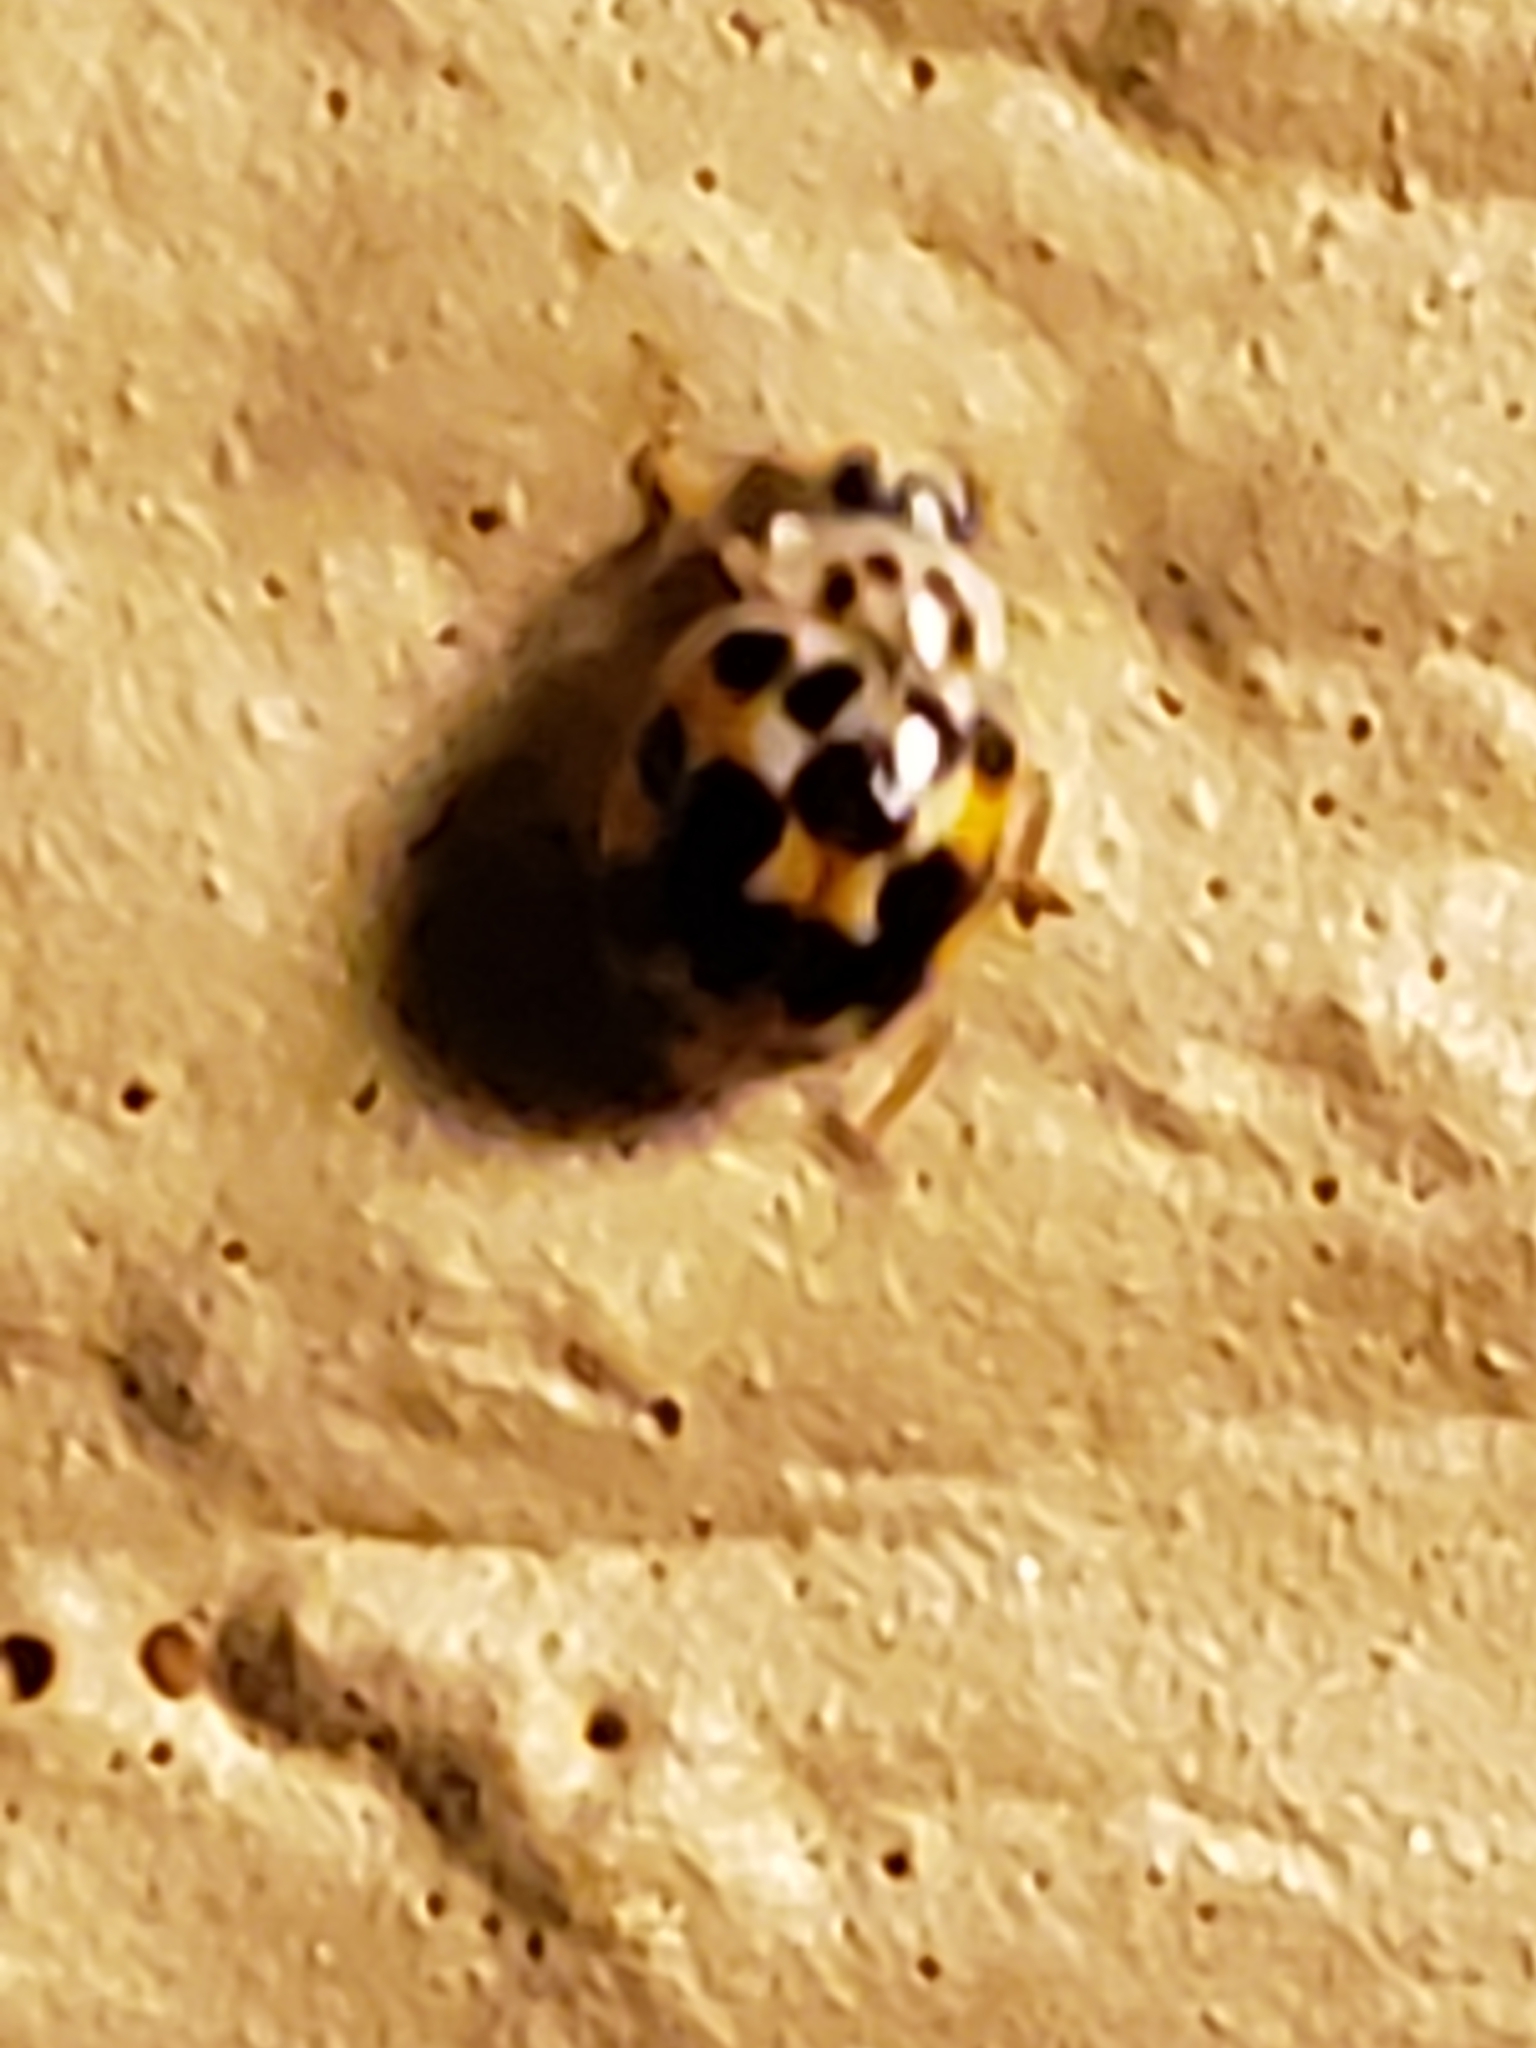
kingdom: Animalia
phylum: Arthropoda
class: Insecta
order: Coleoptera
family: Coccinellidae
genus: Psyllobora
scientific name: Psyllobora vigintimaculata
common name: Ladybird beetle
